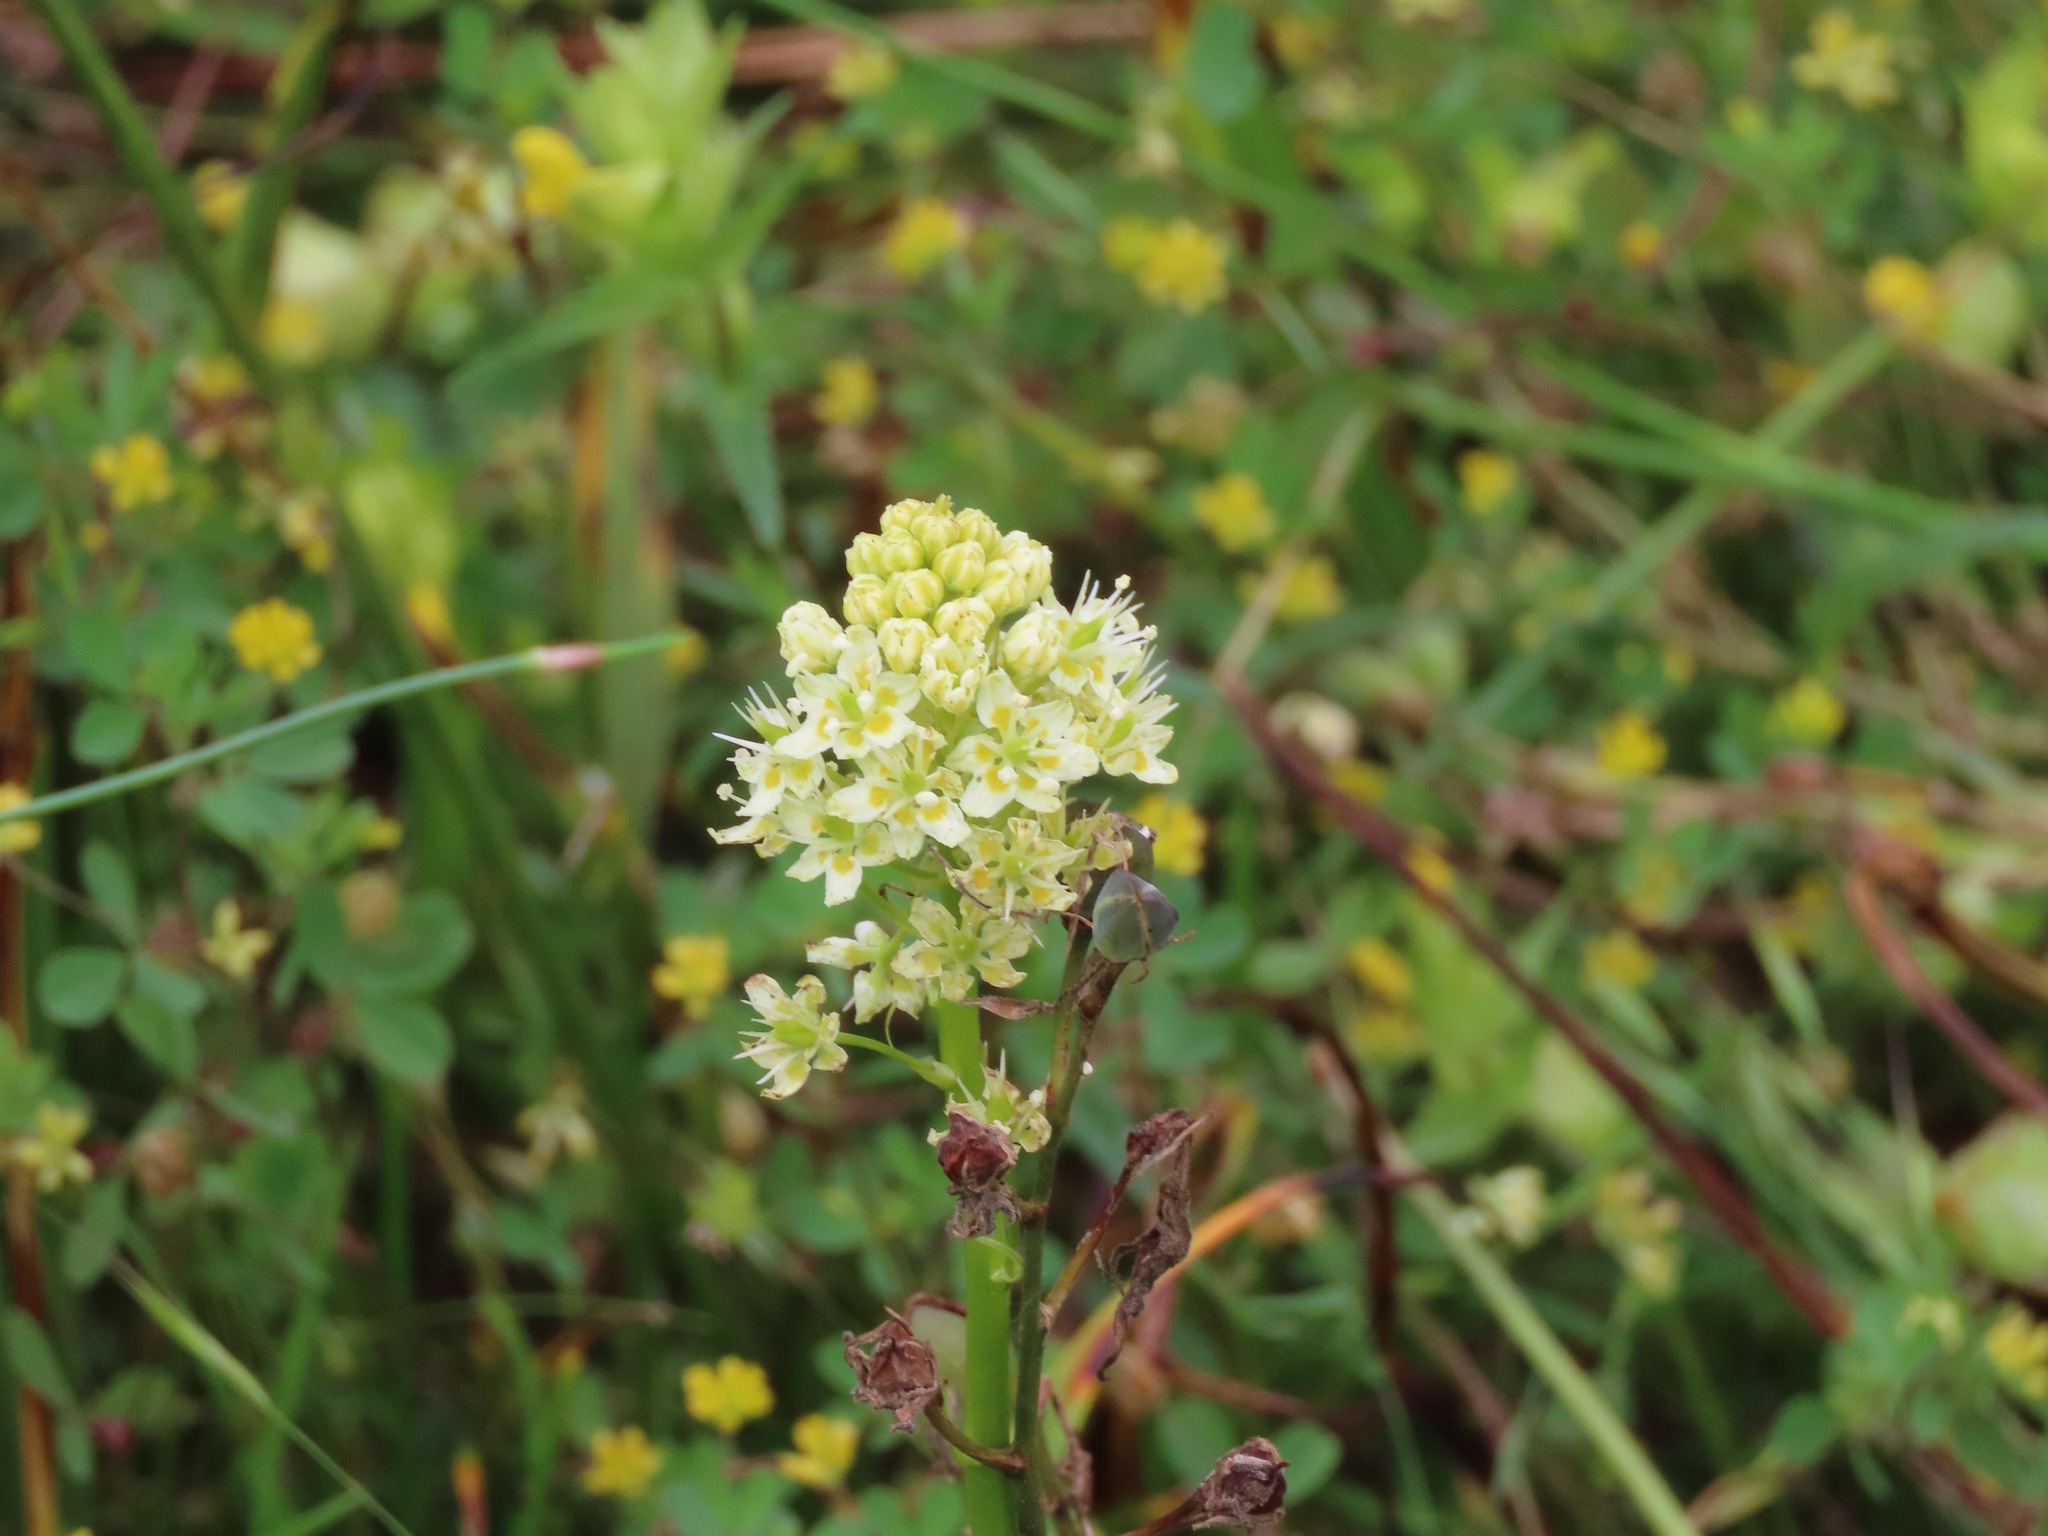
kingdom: Plantae
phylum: Tracheophyta
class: Liliopsida
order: Liliales
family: Melanthiaceae
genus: Toxicoscordion
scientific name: Toxicoscordion venenosum
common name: Meadow death camas
